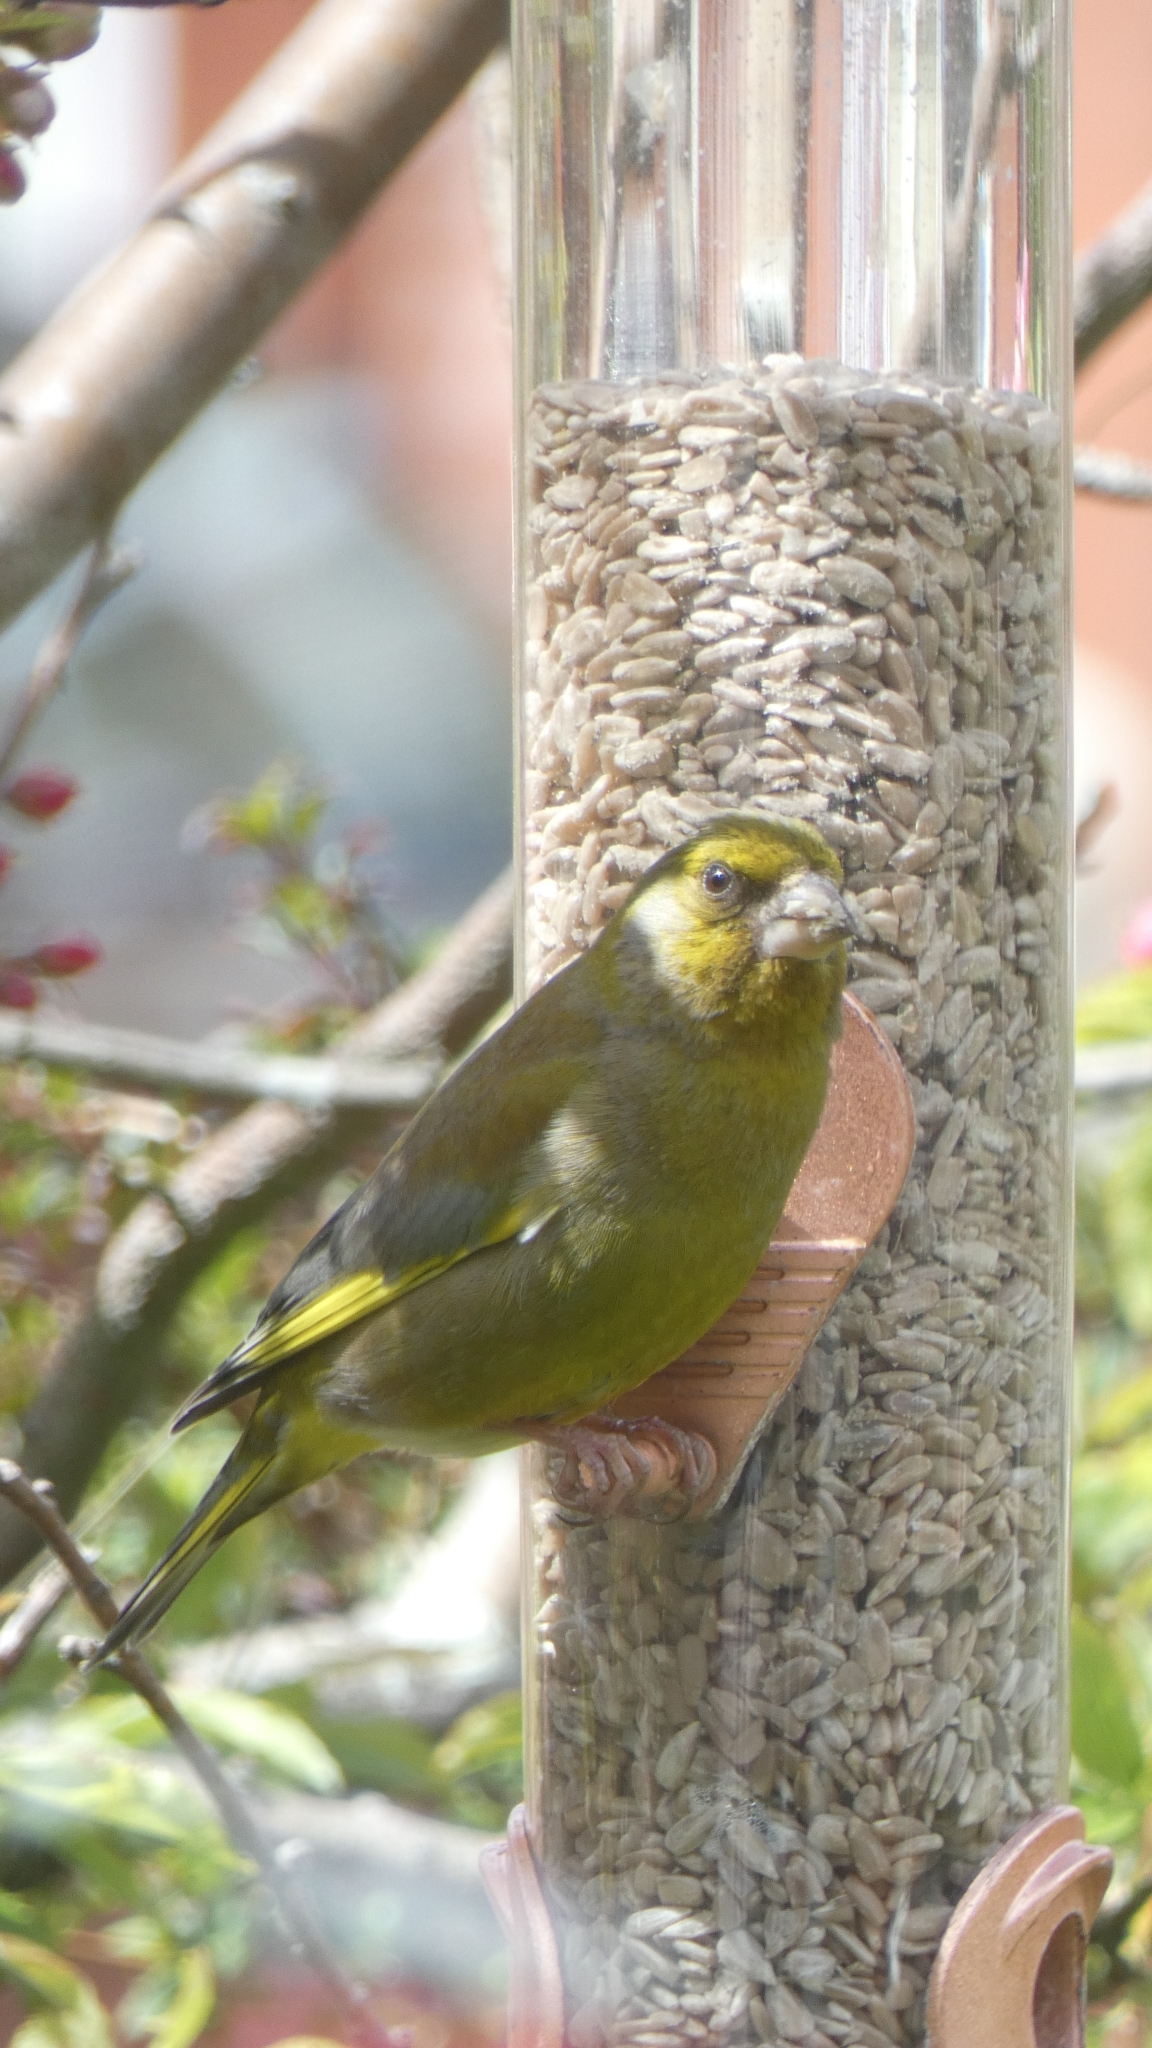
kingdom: Plantae
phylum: Tracheophyta
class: Liliopsida
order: Poales
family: Poaceae
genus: Chloris
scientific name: Chloris chloris
